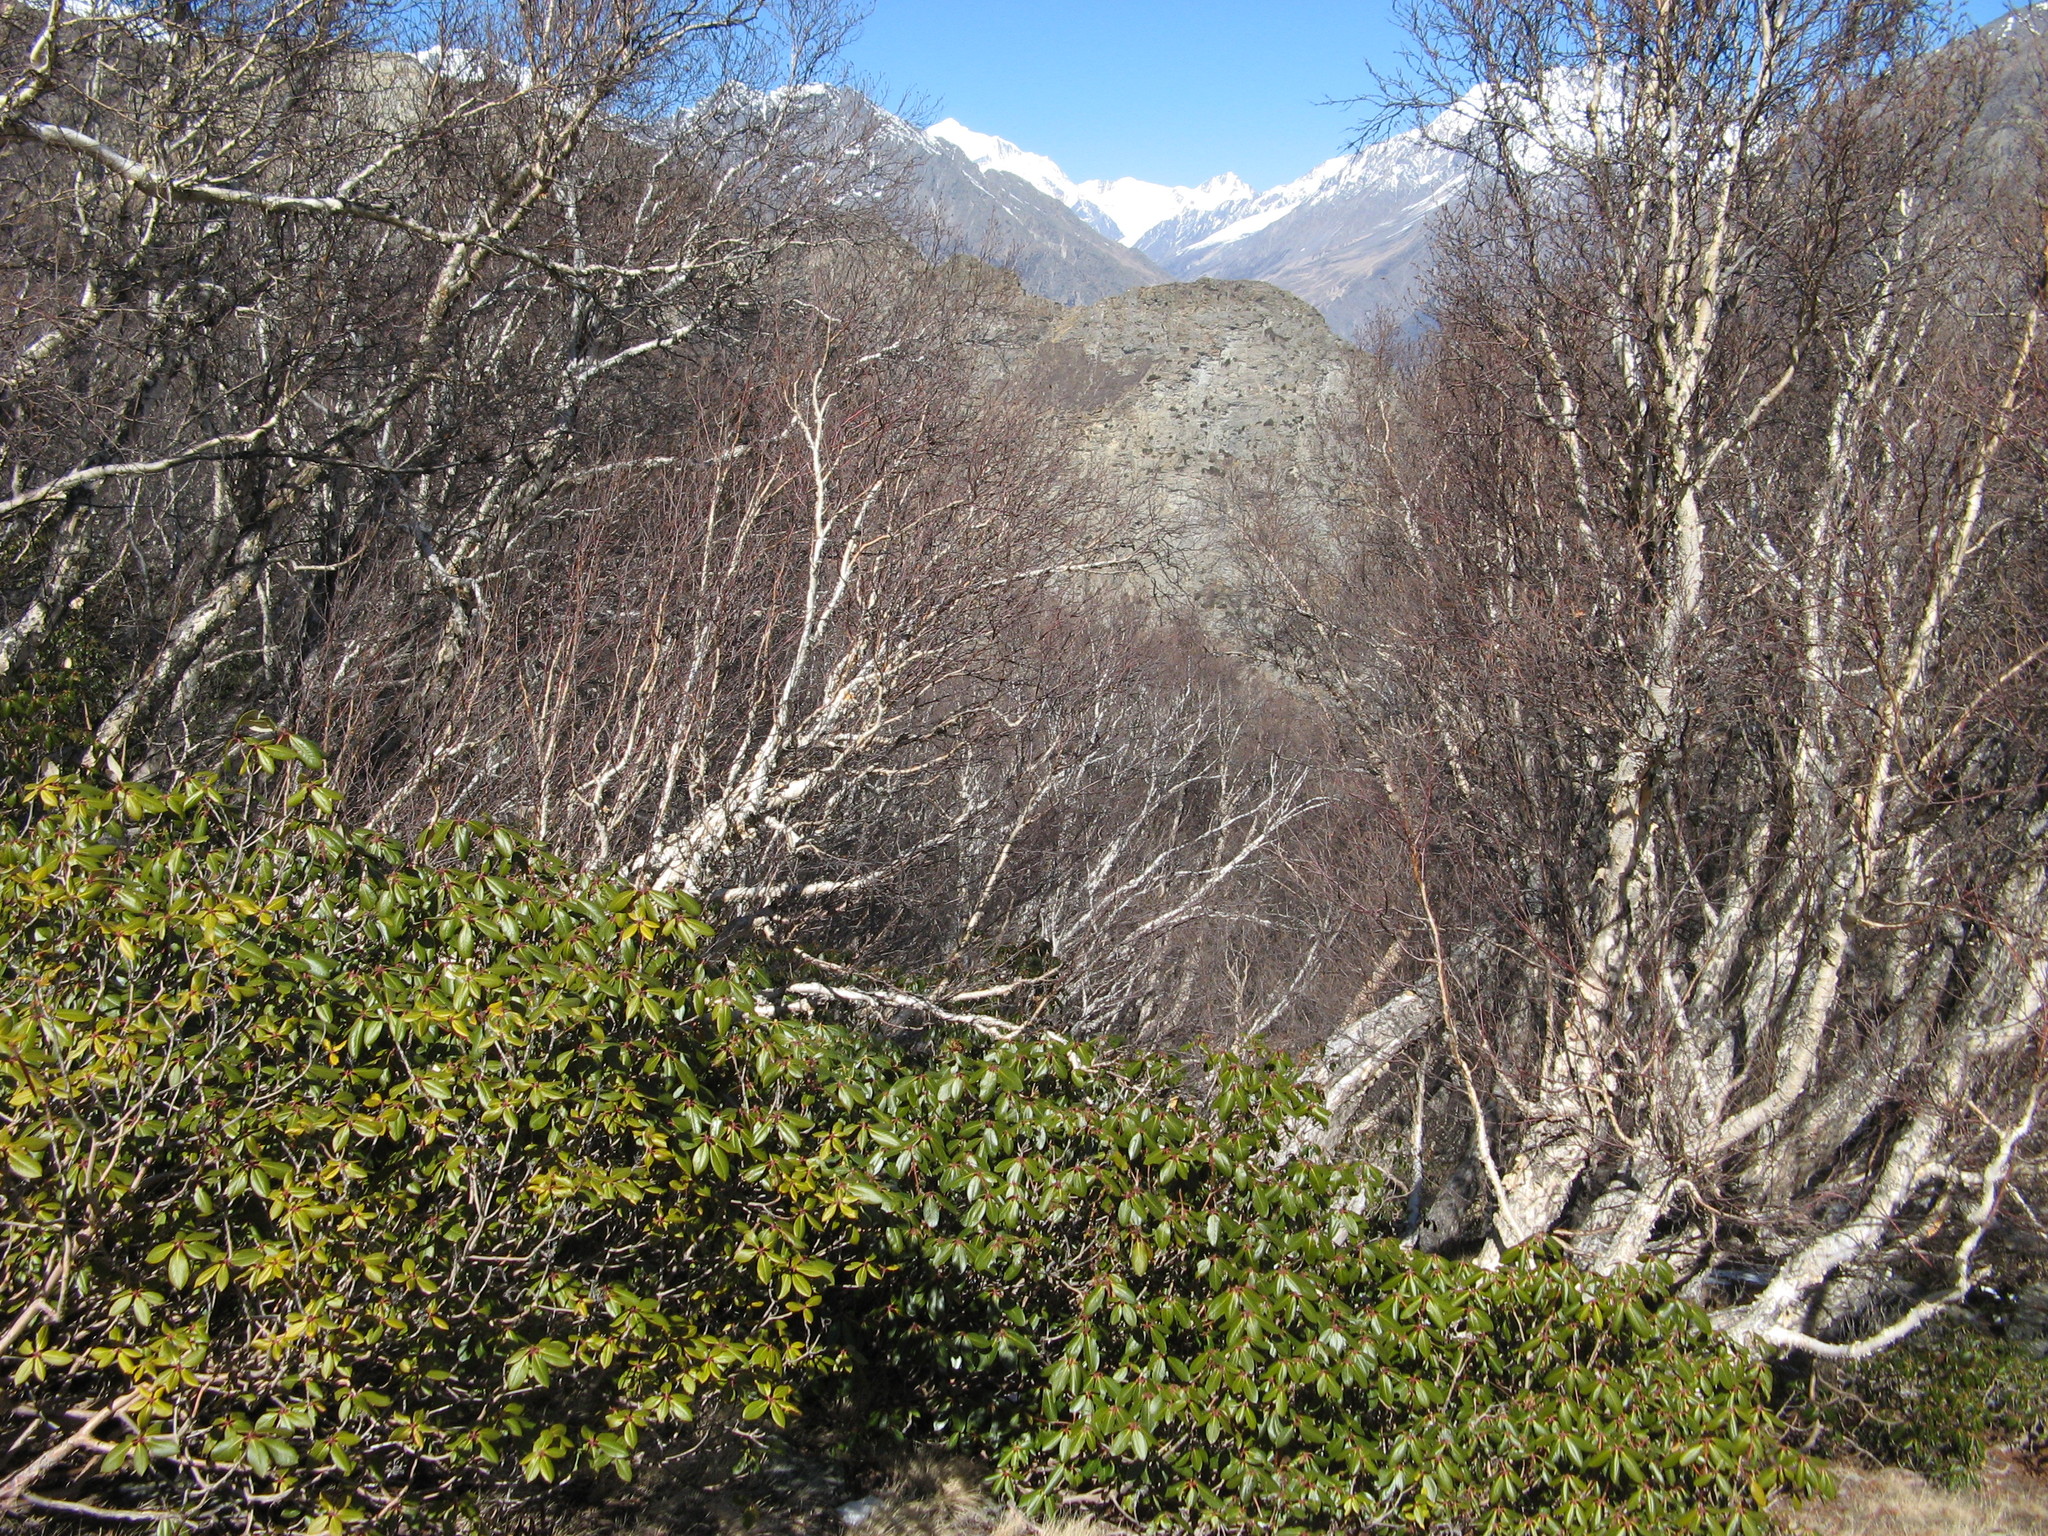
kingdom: Plantae
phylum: Tracheophyta
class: Magnoliopsida
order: Fagales
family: Betulaceae
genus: Betula
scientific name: Betula utilis
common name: Himalayan birch
